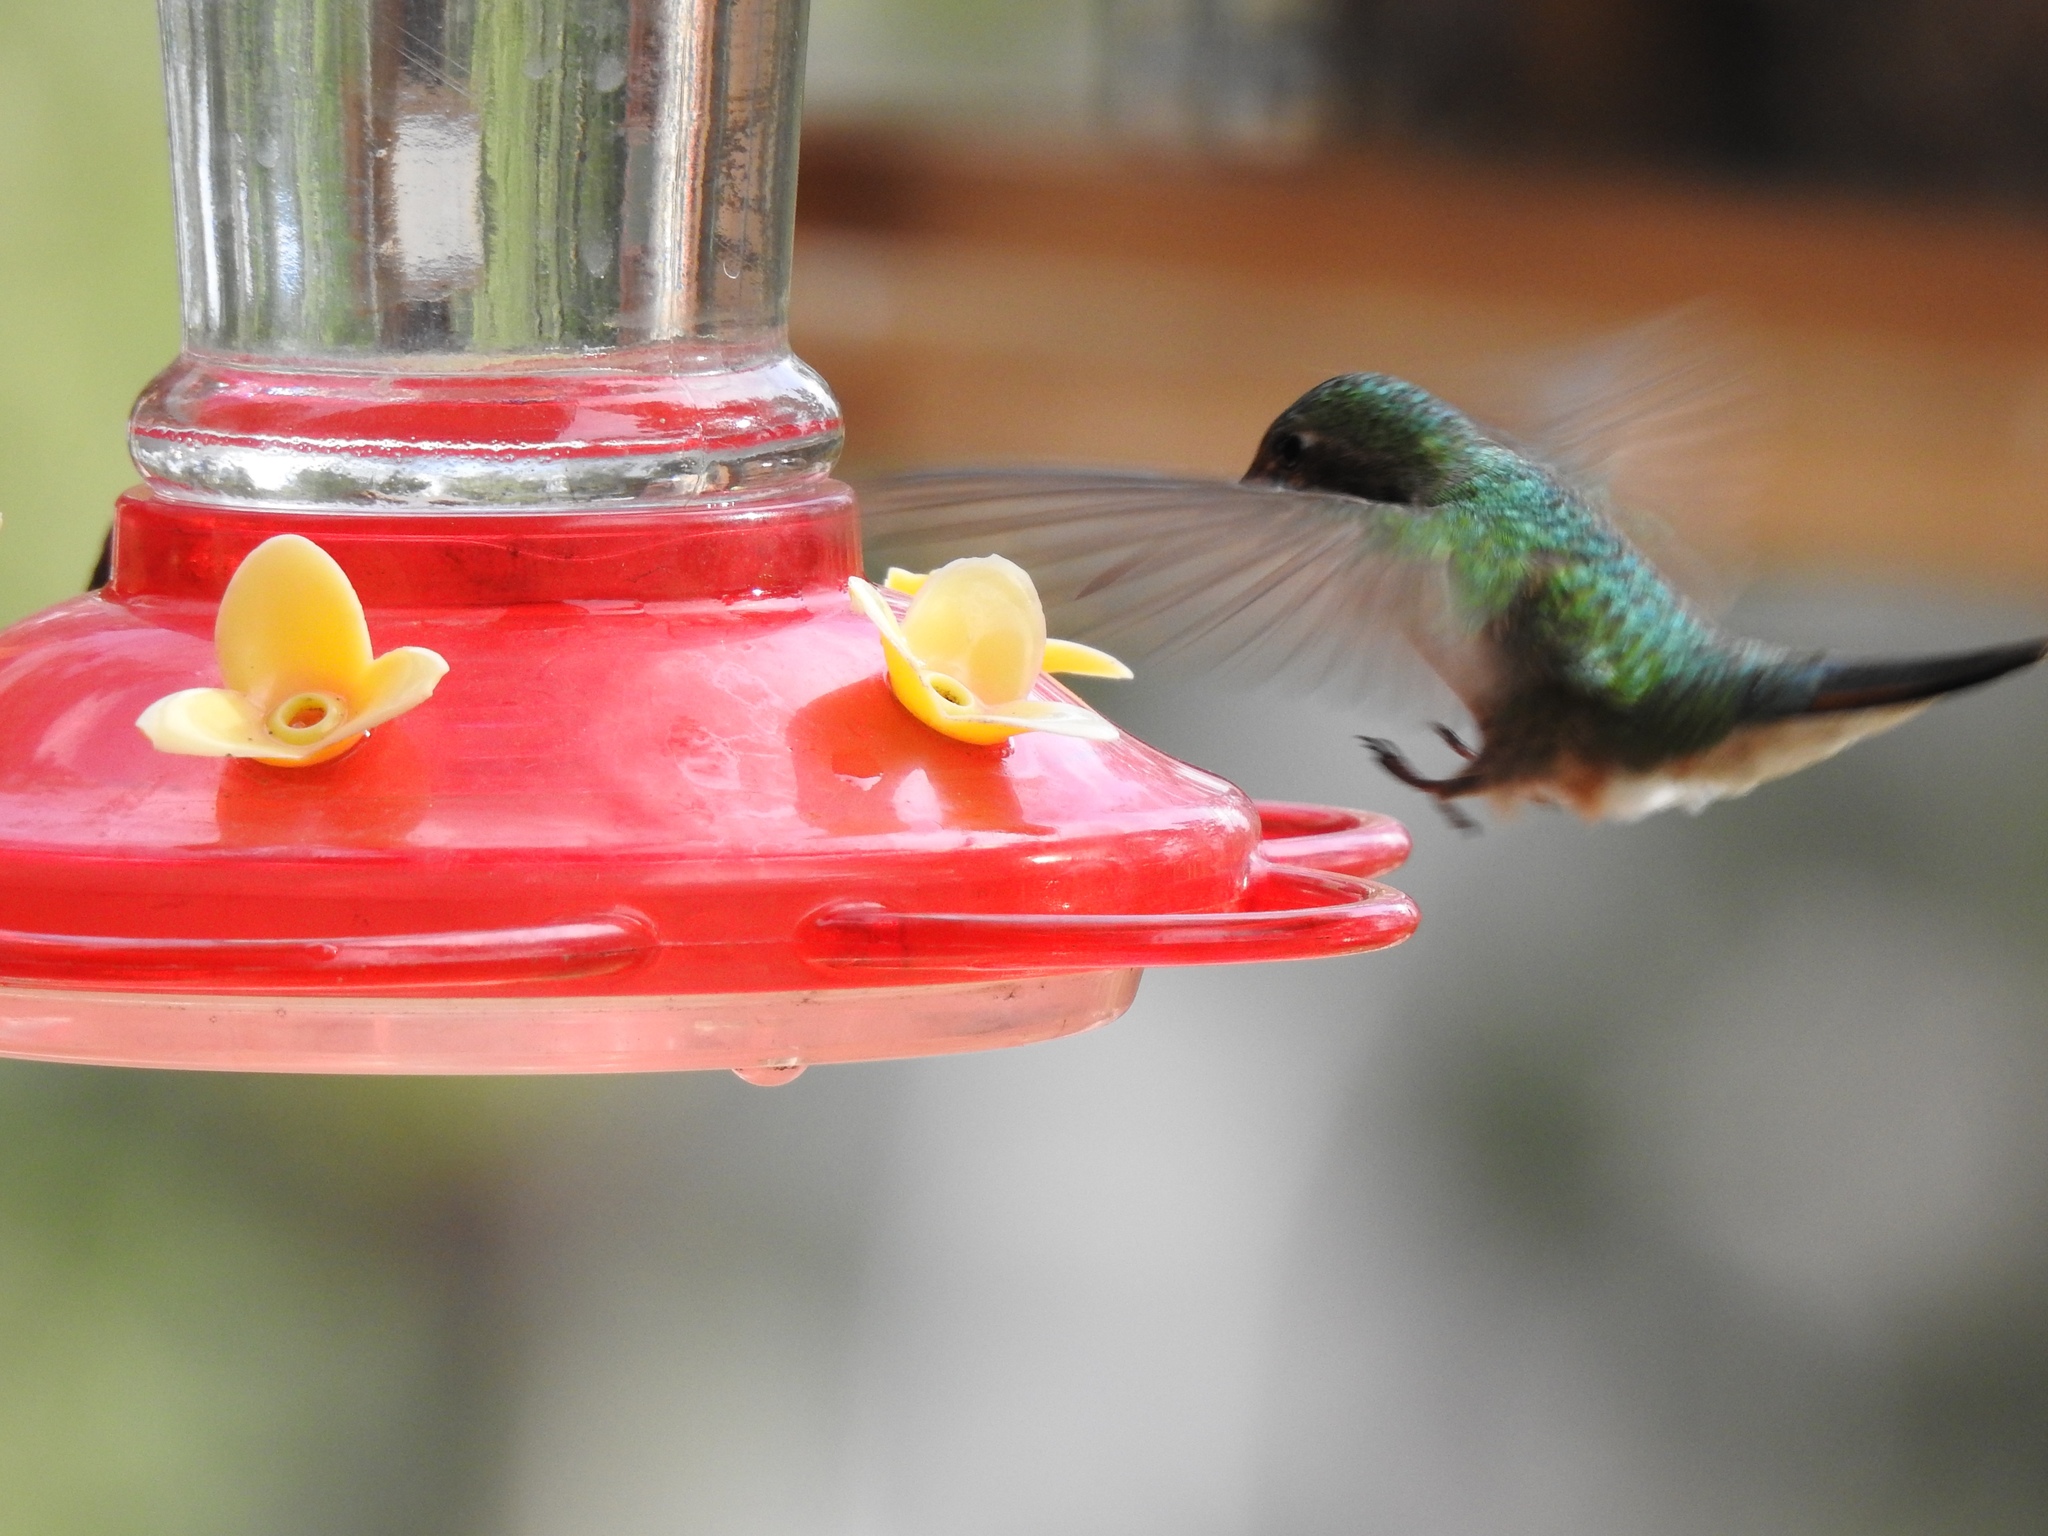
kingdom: Animalia
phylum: Chordata
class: Aves
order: Apodiformes
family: Trochilidae
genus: Selasphorus
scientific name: Selasphorus platycercus
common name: Broad-tailed hummingbird
